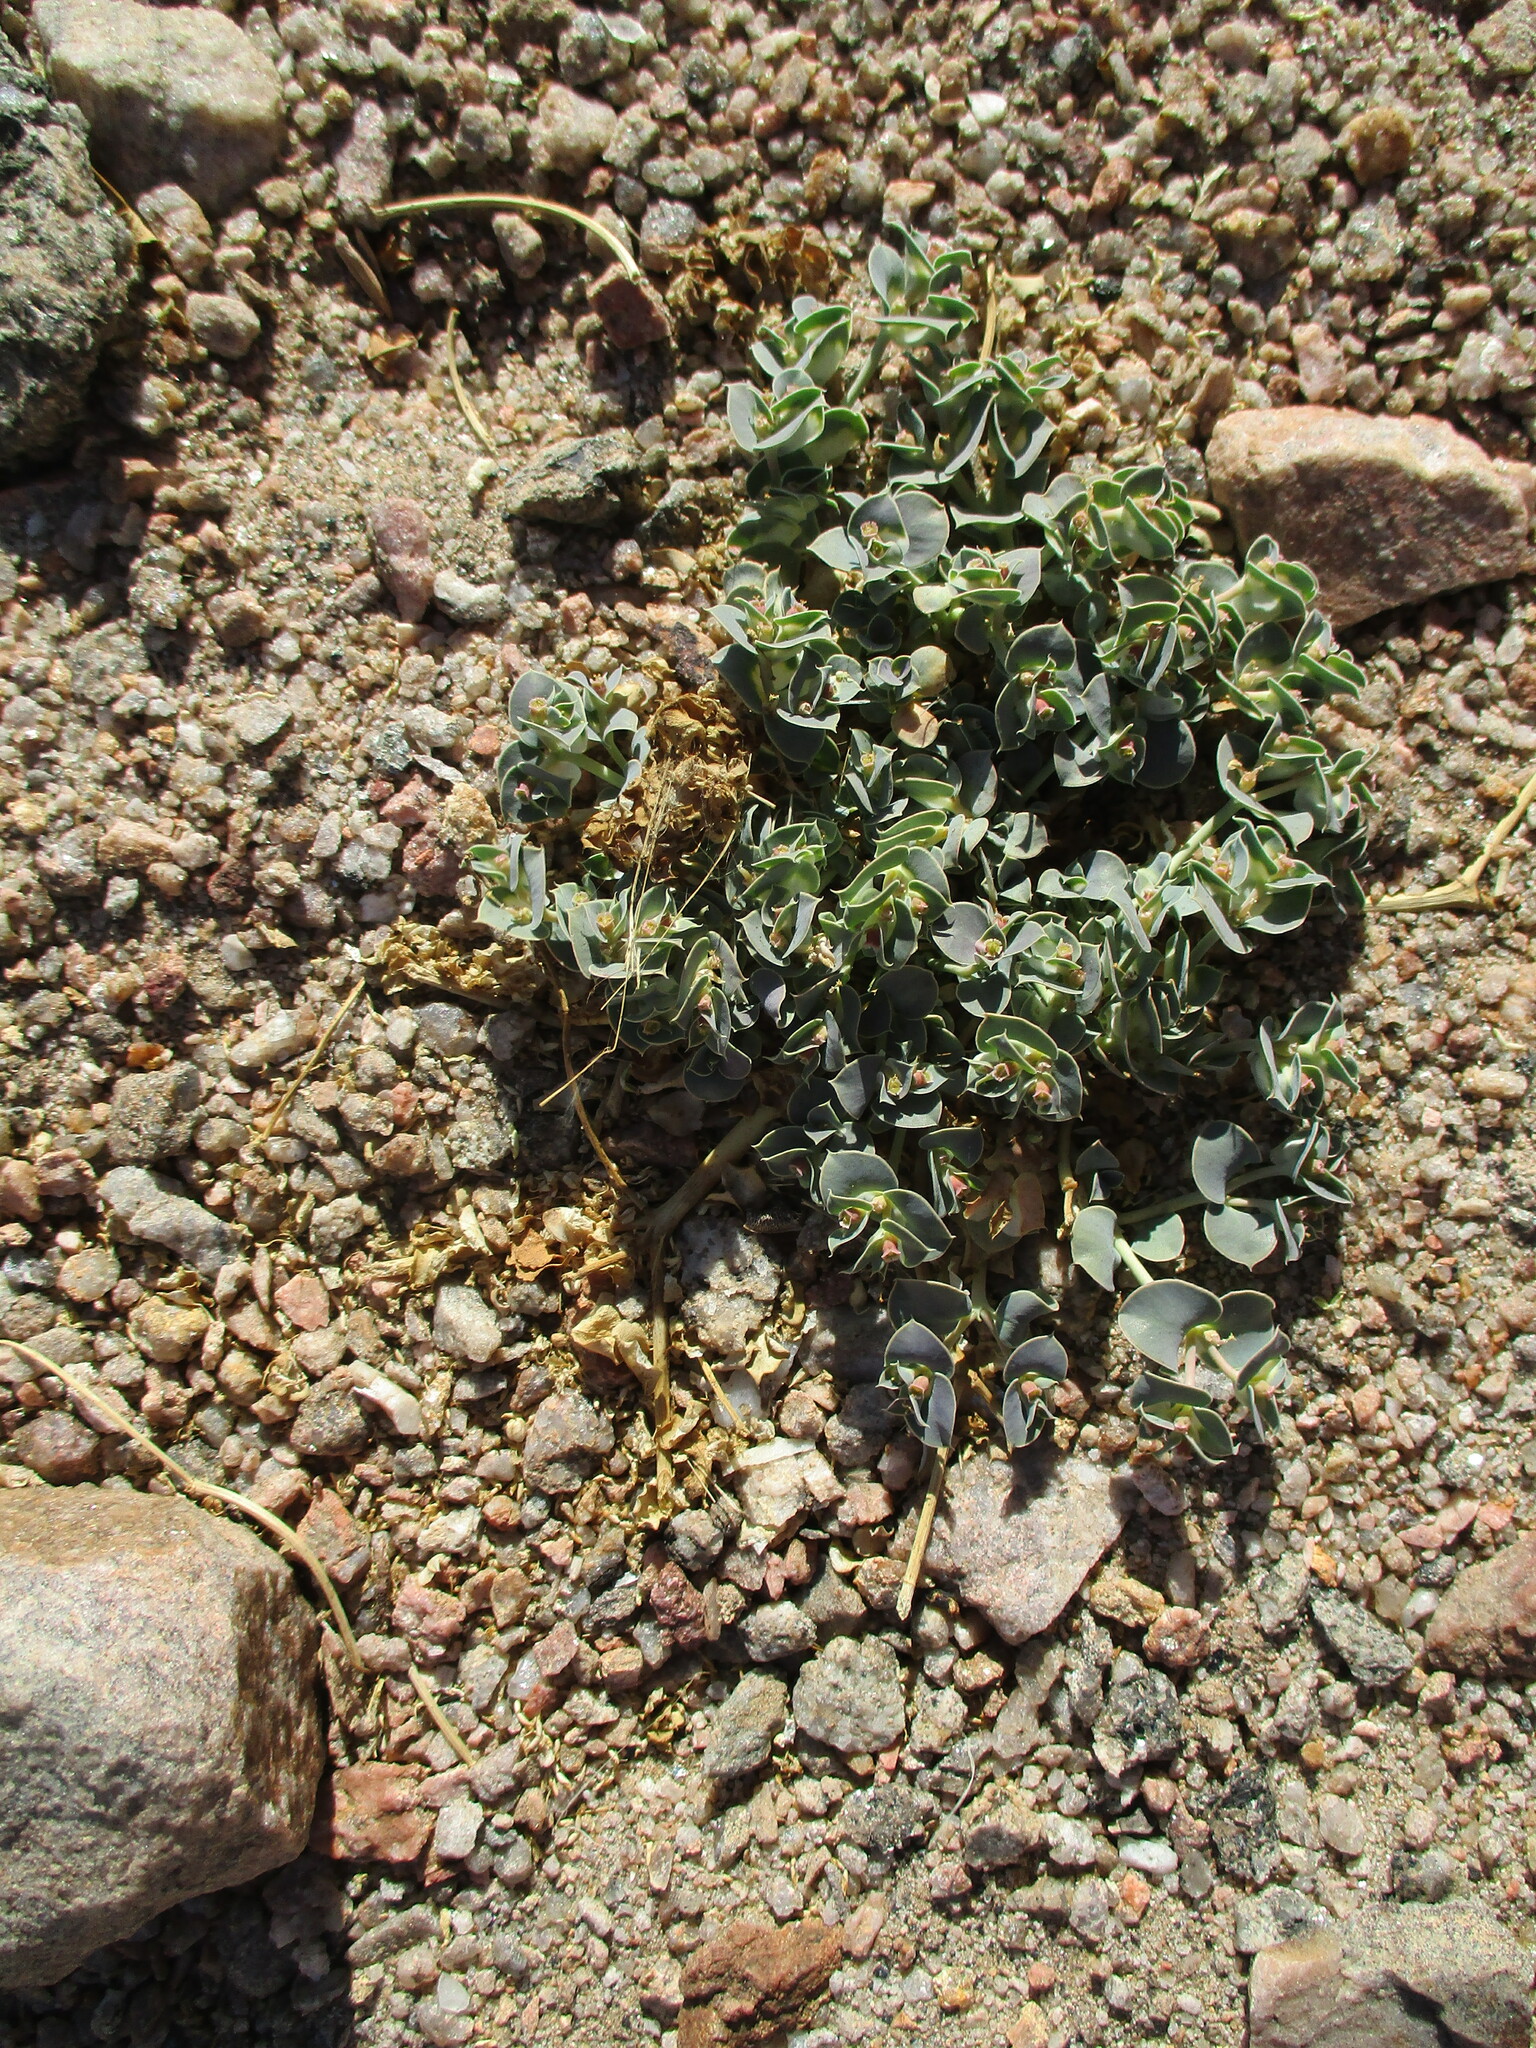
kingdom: Plantae
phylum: Tracheophyta
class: Magnoliopsida
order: Malpighiales
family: Euphorbiaceae
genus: Euphorbia
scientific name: Euphorbia phylloclada
